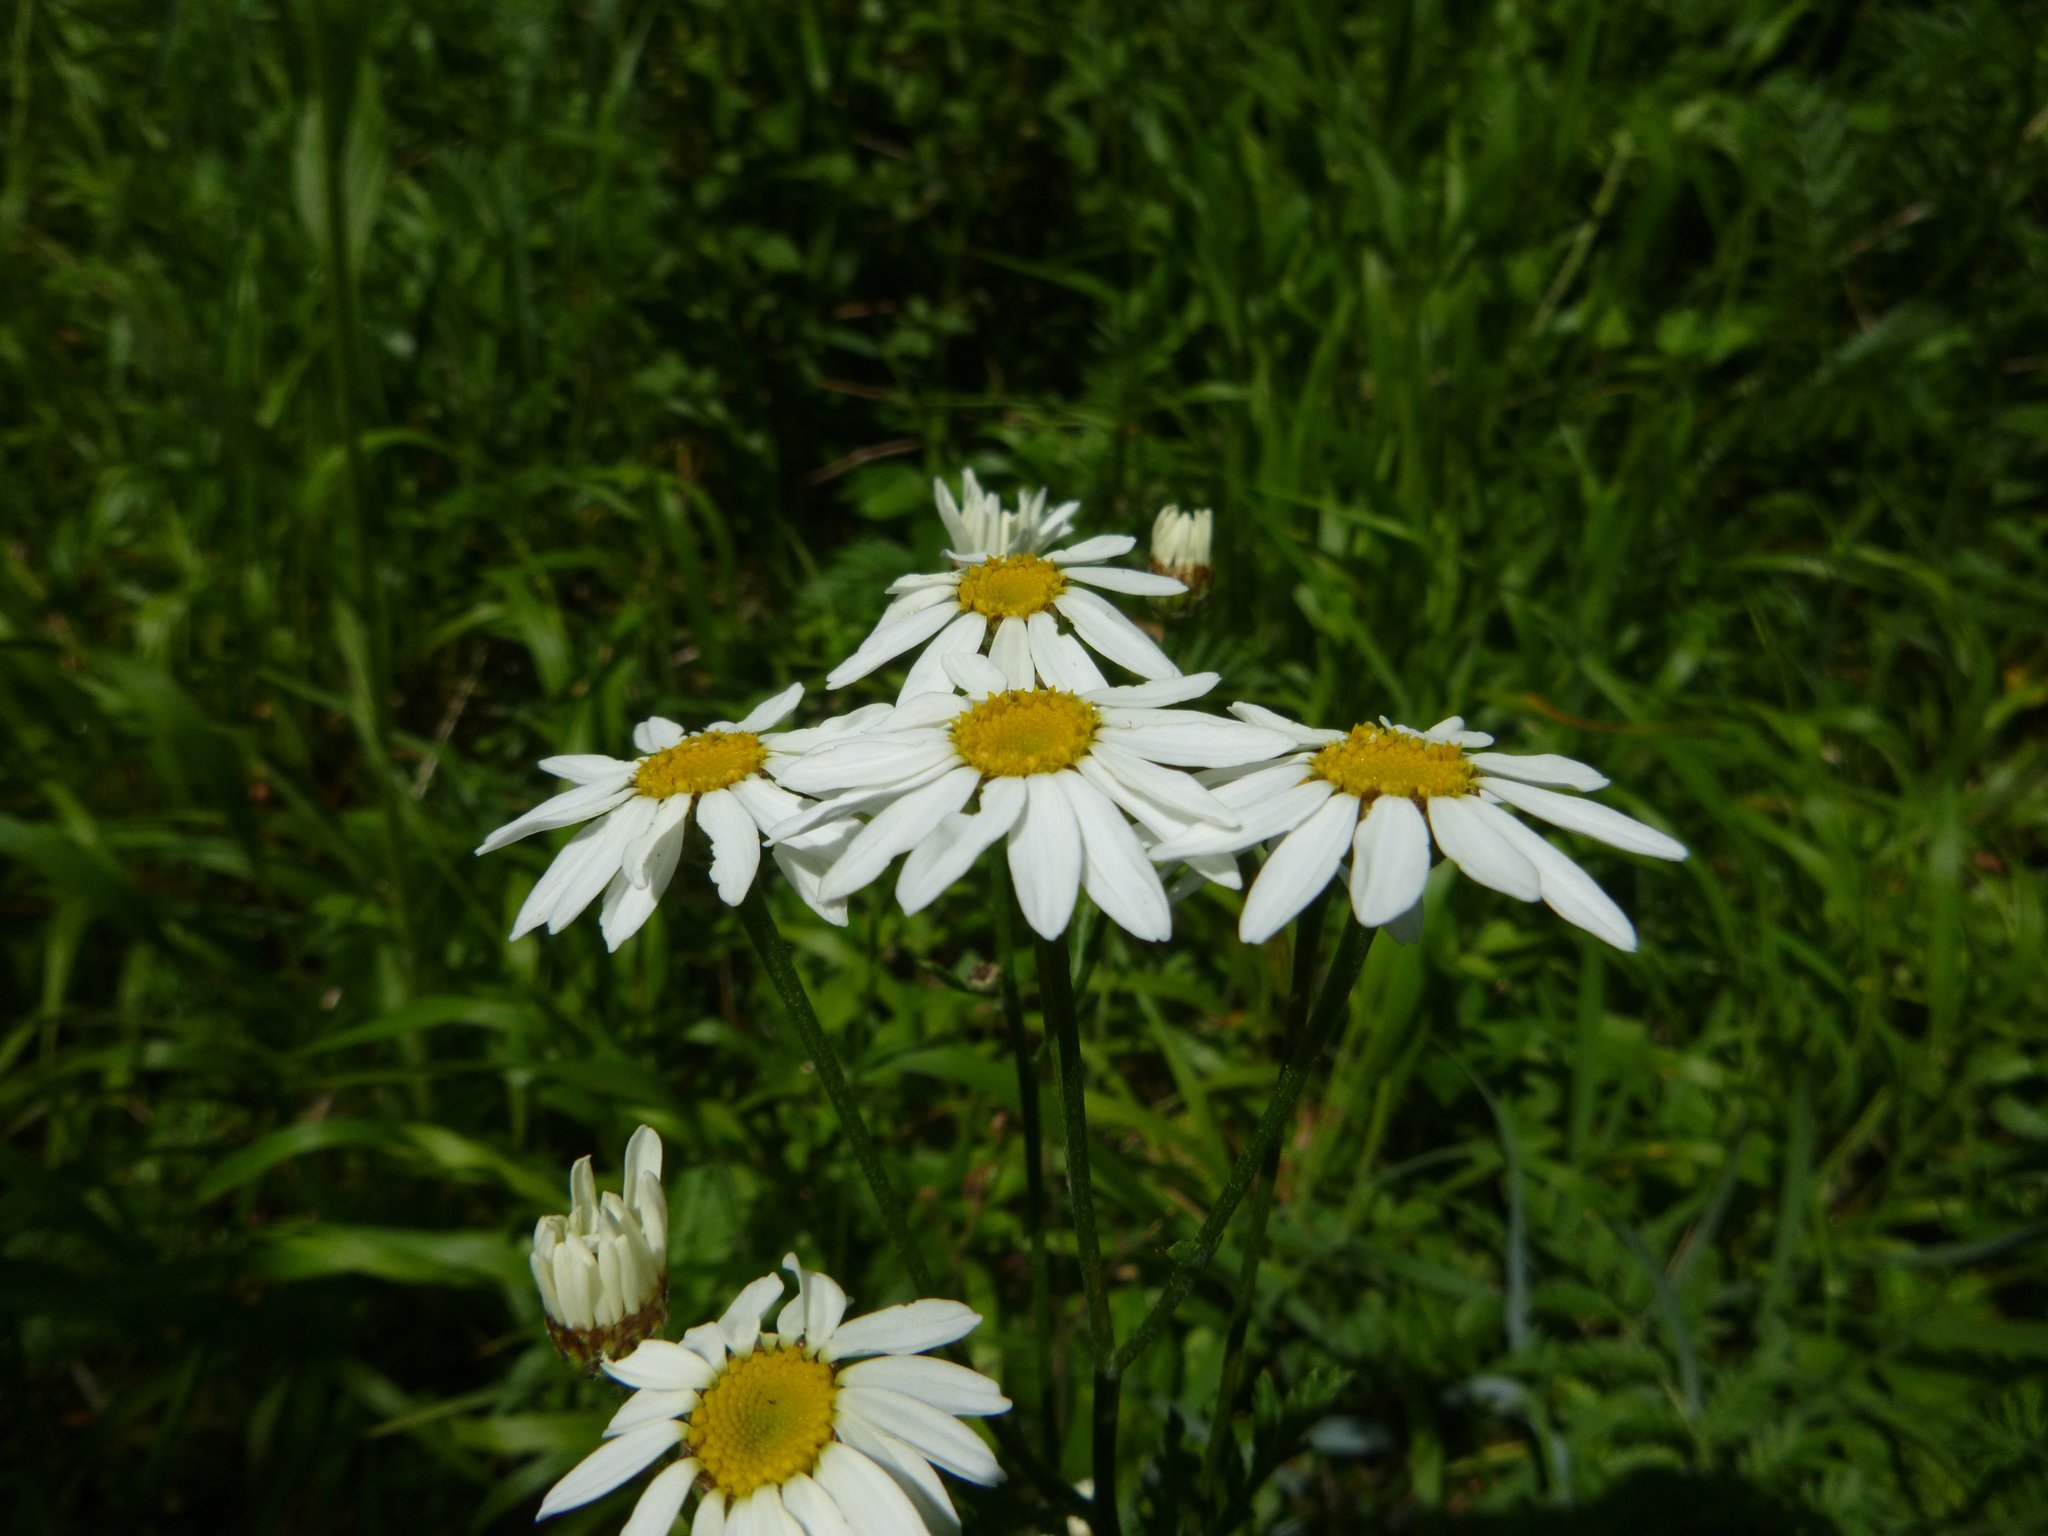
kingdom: Plantae
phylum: Tracheophyta
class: Magnoliopsida
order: Asterales
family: Asteraceae
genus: Tanacetum
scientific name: Tanacetum corymbosum
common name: Scentless feverfew
